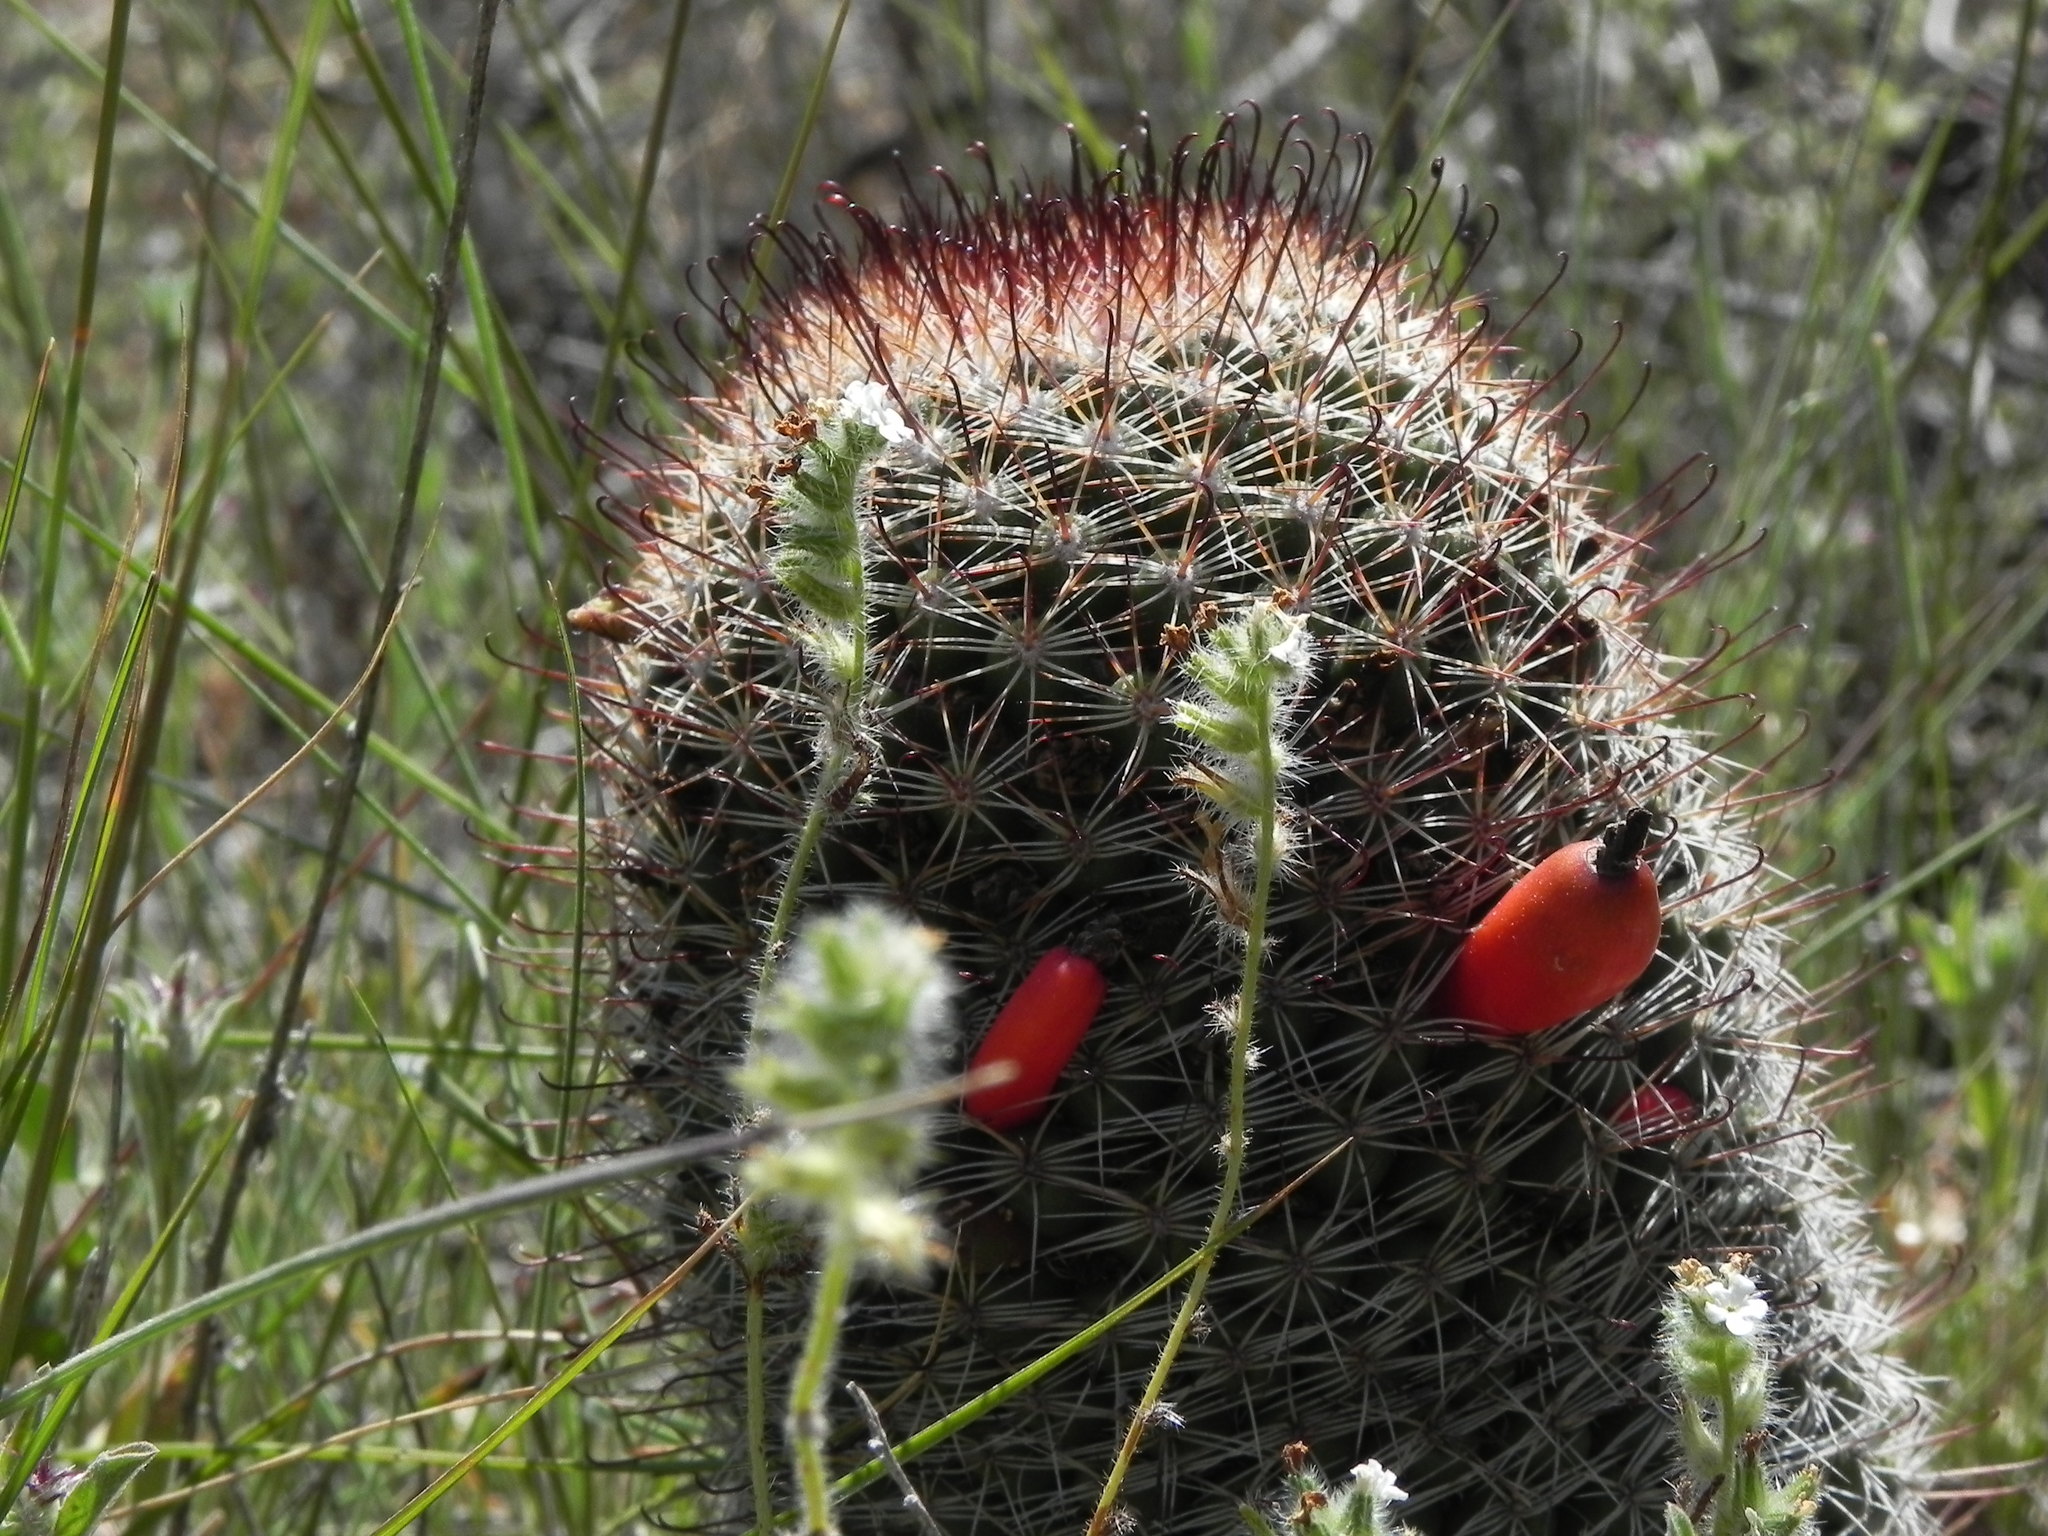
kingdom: Plantae
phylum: Tracheophyta
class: Magnoliopsida
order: Caryophyllales
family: Cactaceae
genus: Cochemiea
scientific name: Cochemiea dioica
